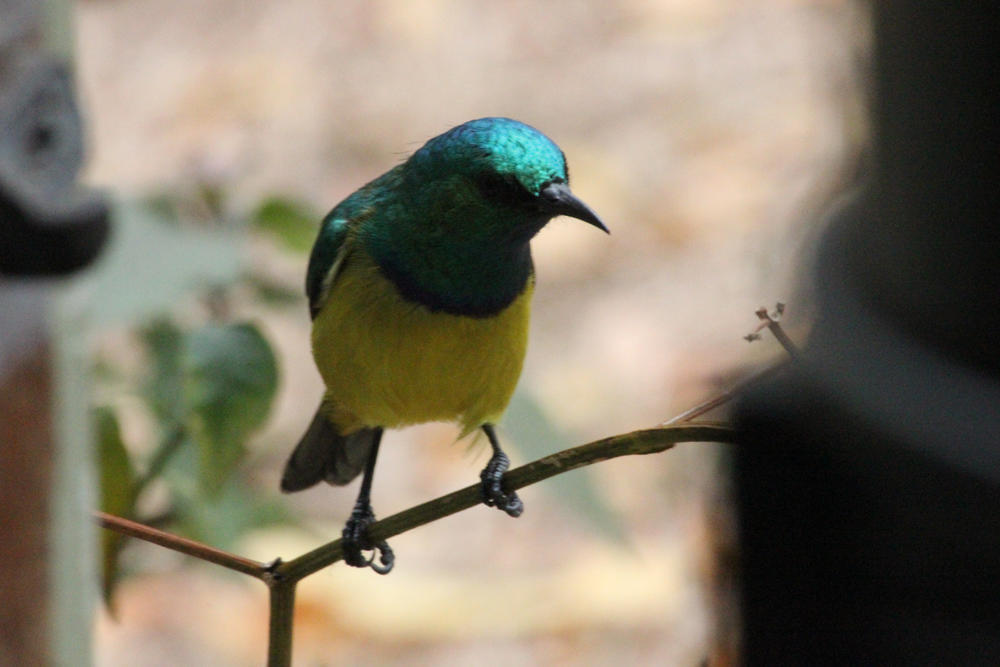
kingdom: Animalia
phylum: Chordata
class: Aves
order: Passeriformes
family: Nectariniidae
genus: Hedydipna
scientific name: Hedydipna collaris
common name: Collared sunbird
